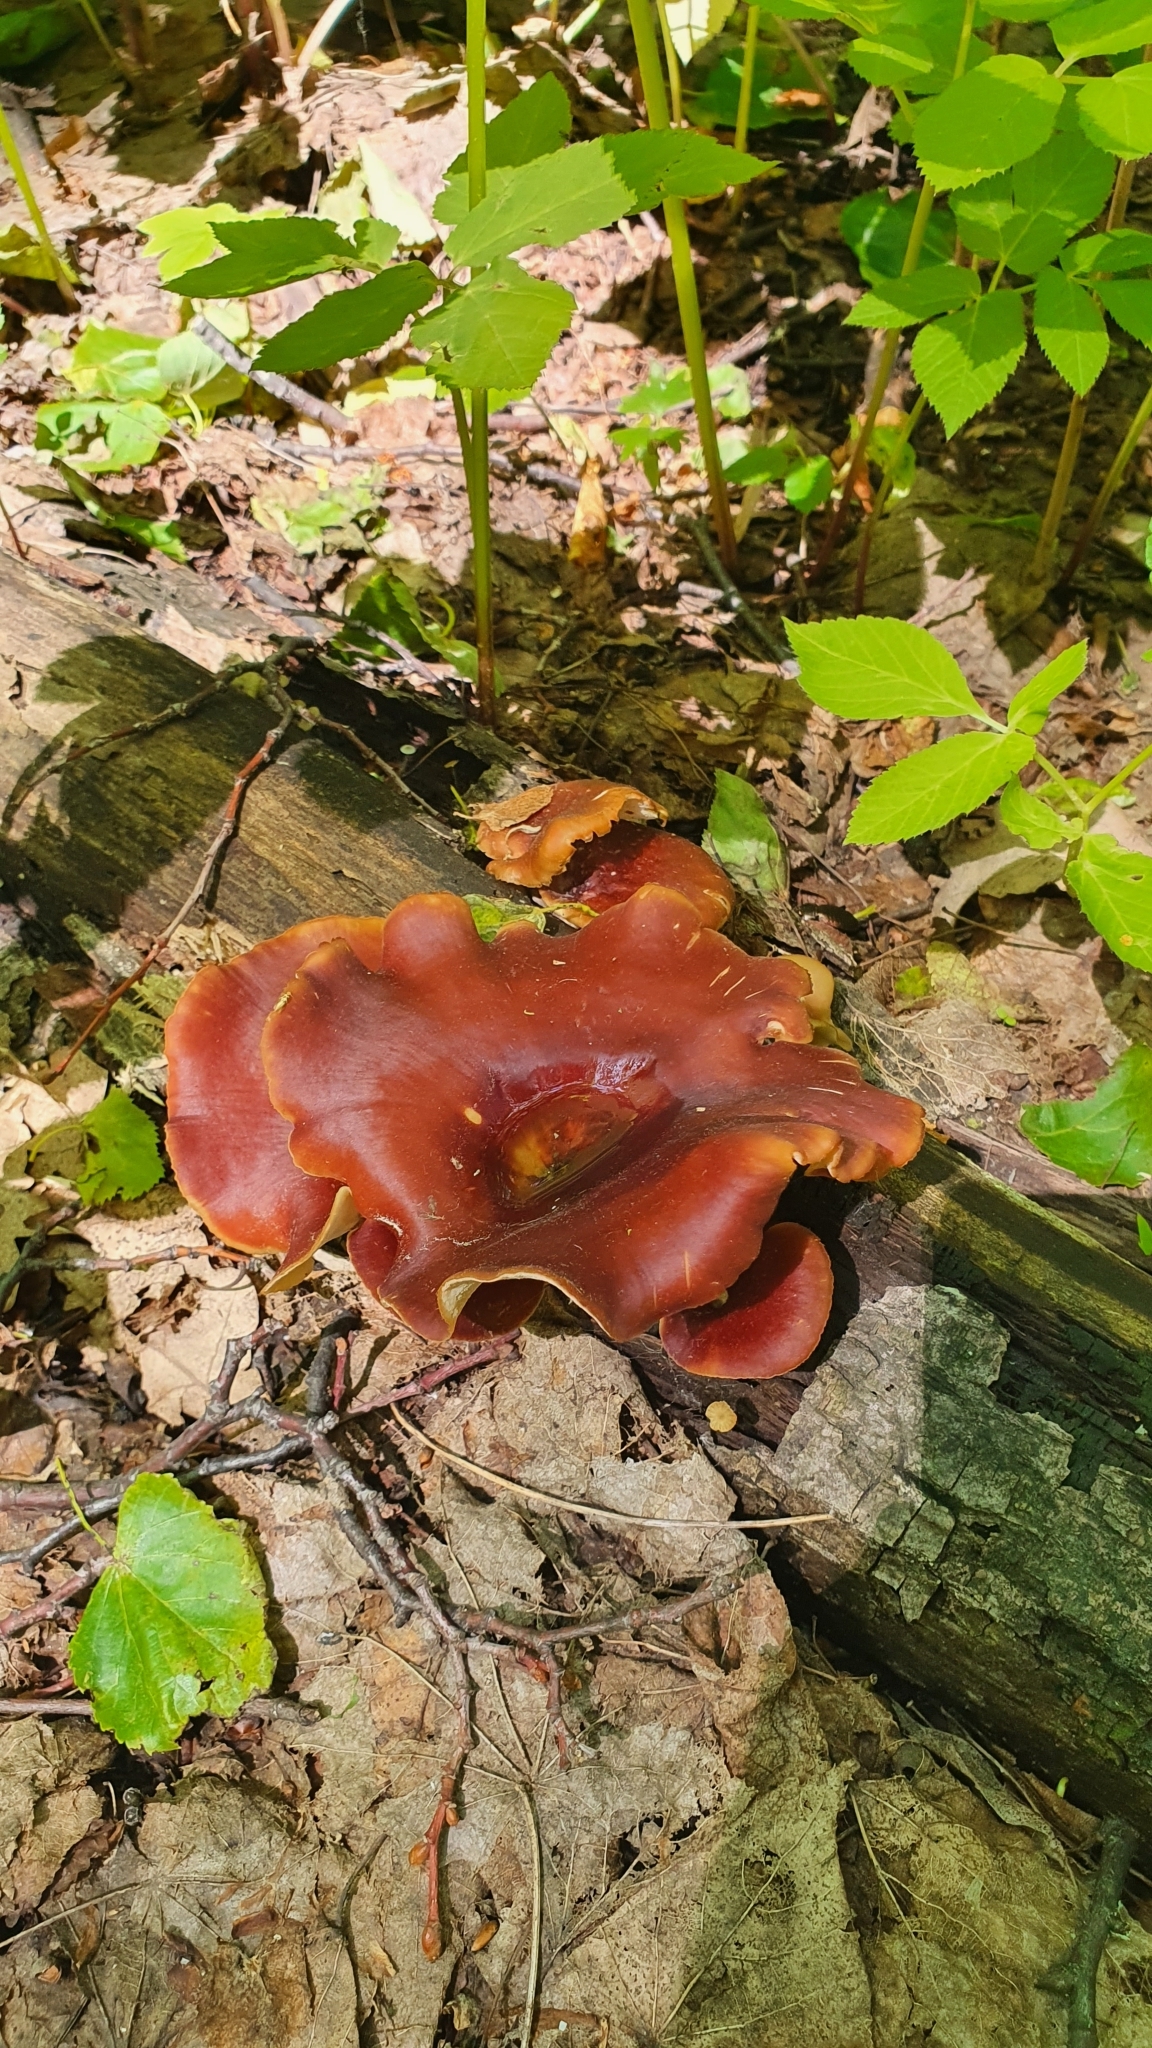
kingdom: Fungi
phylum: Basidiomycota
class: Agaricomycetes
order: Polyporales
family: Polyporaceae
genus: Picipes
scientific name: Picipes badius
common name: Bay polypore
